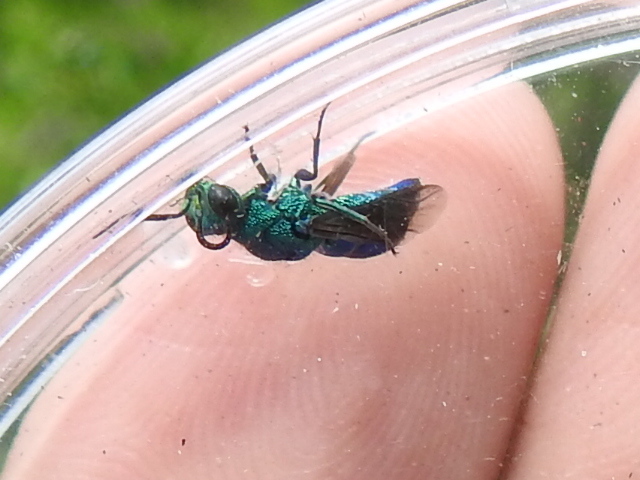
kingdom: Animalia
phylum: Arthropoda
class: Insecta
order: Hymenoptera
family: Chrysididae
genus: Chrysis
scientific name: Chrysis conica
